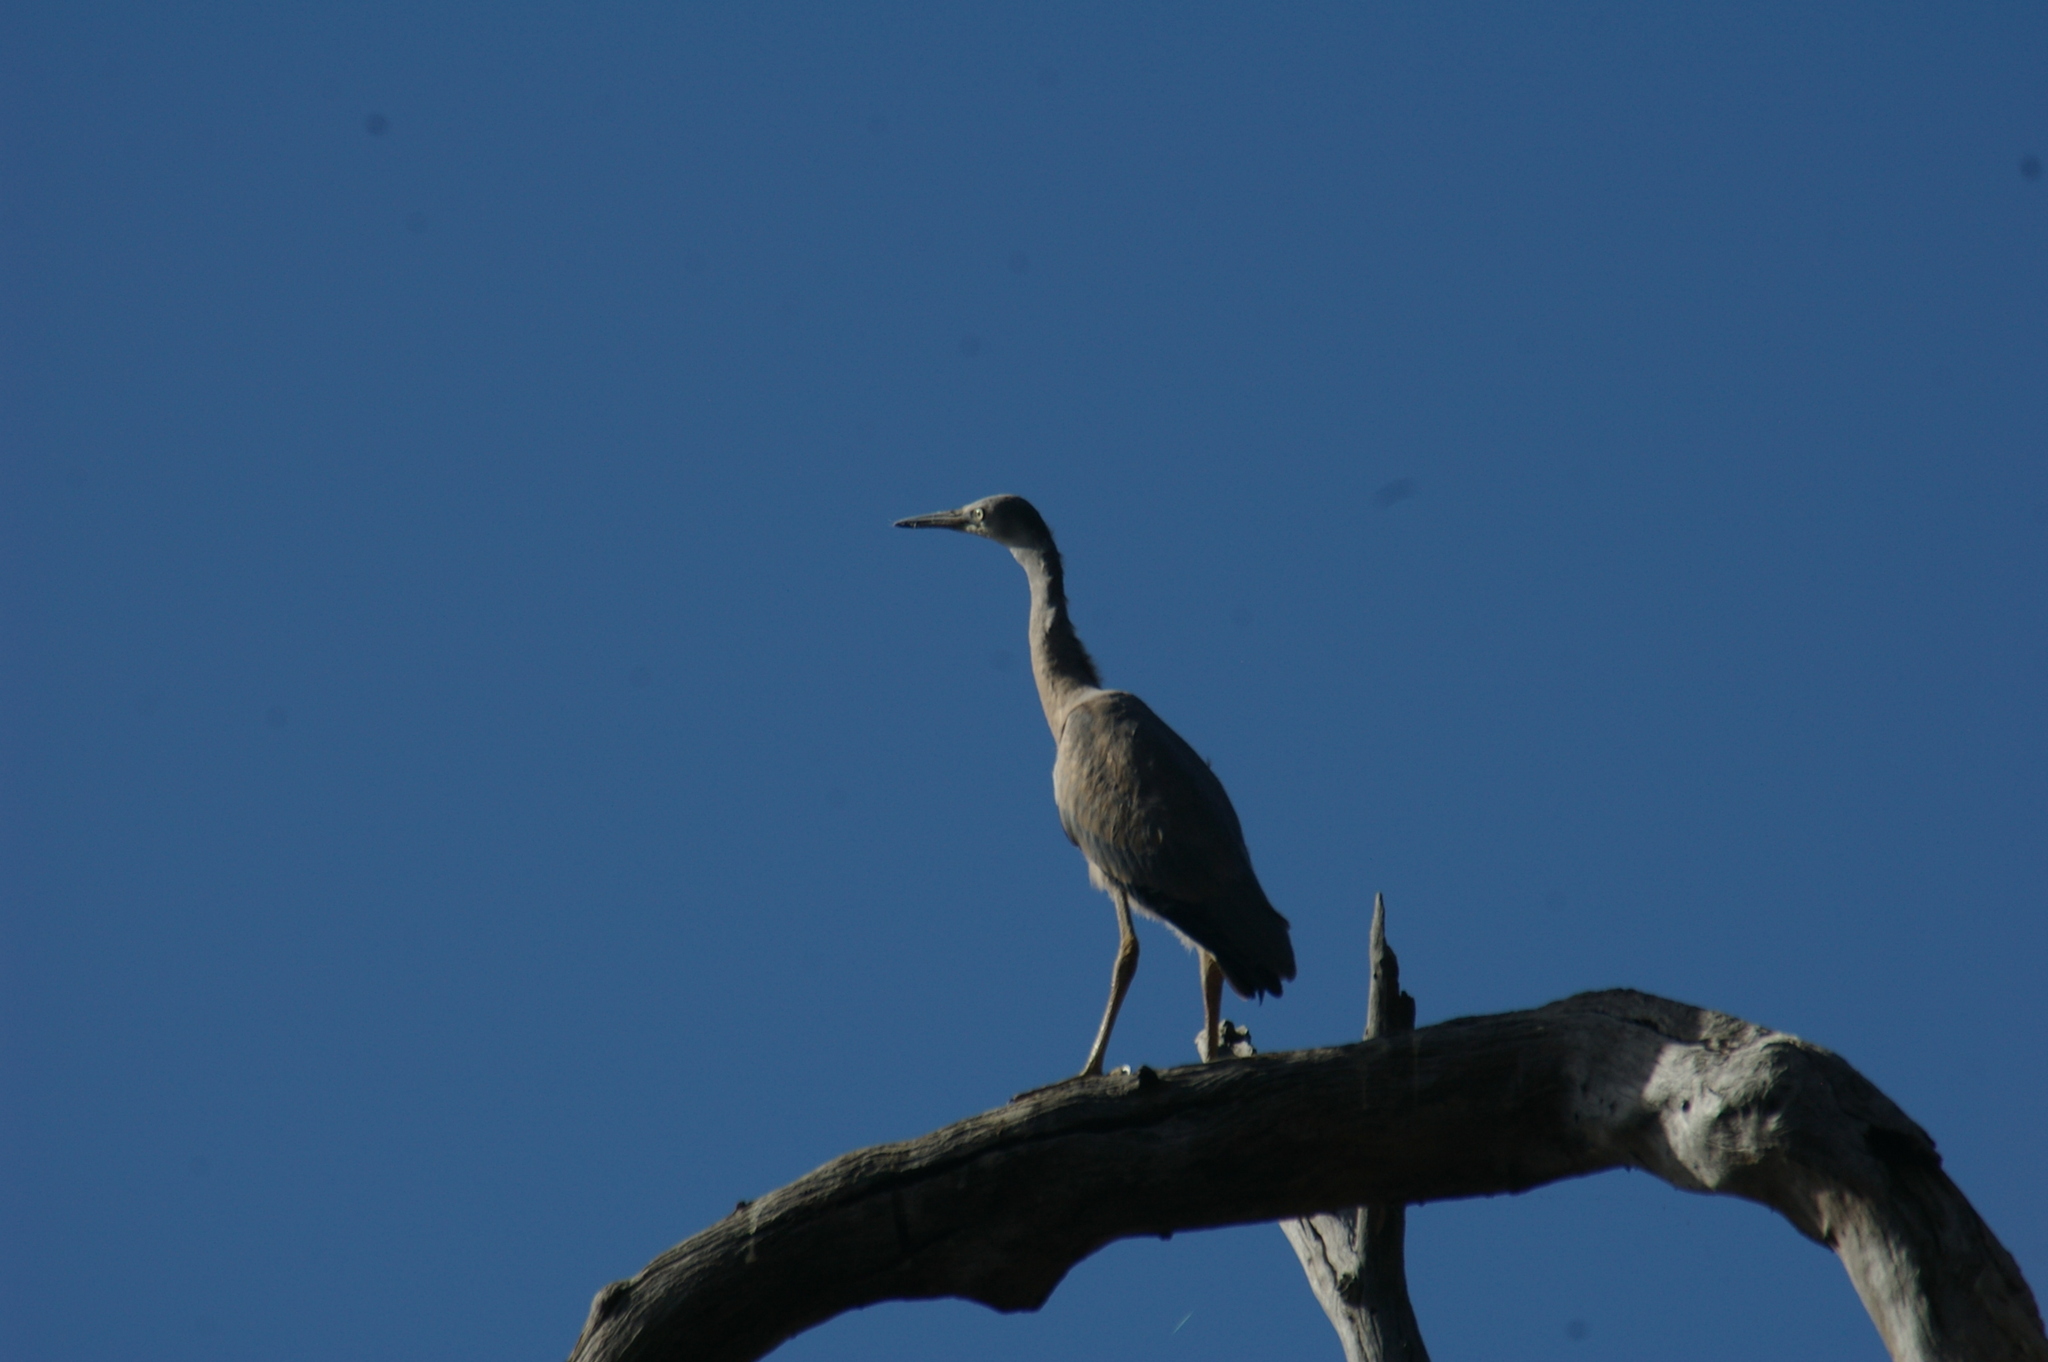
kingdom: Animalia
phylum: Chordata
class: Aves
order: Pelecaniformes
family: Ardeidae
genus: Egretta
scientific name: Egretta novaehollandiae
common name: White-faced heron
